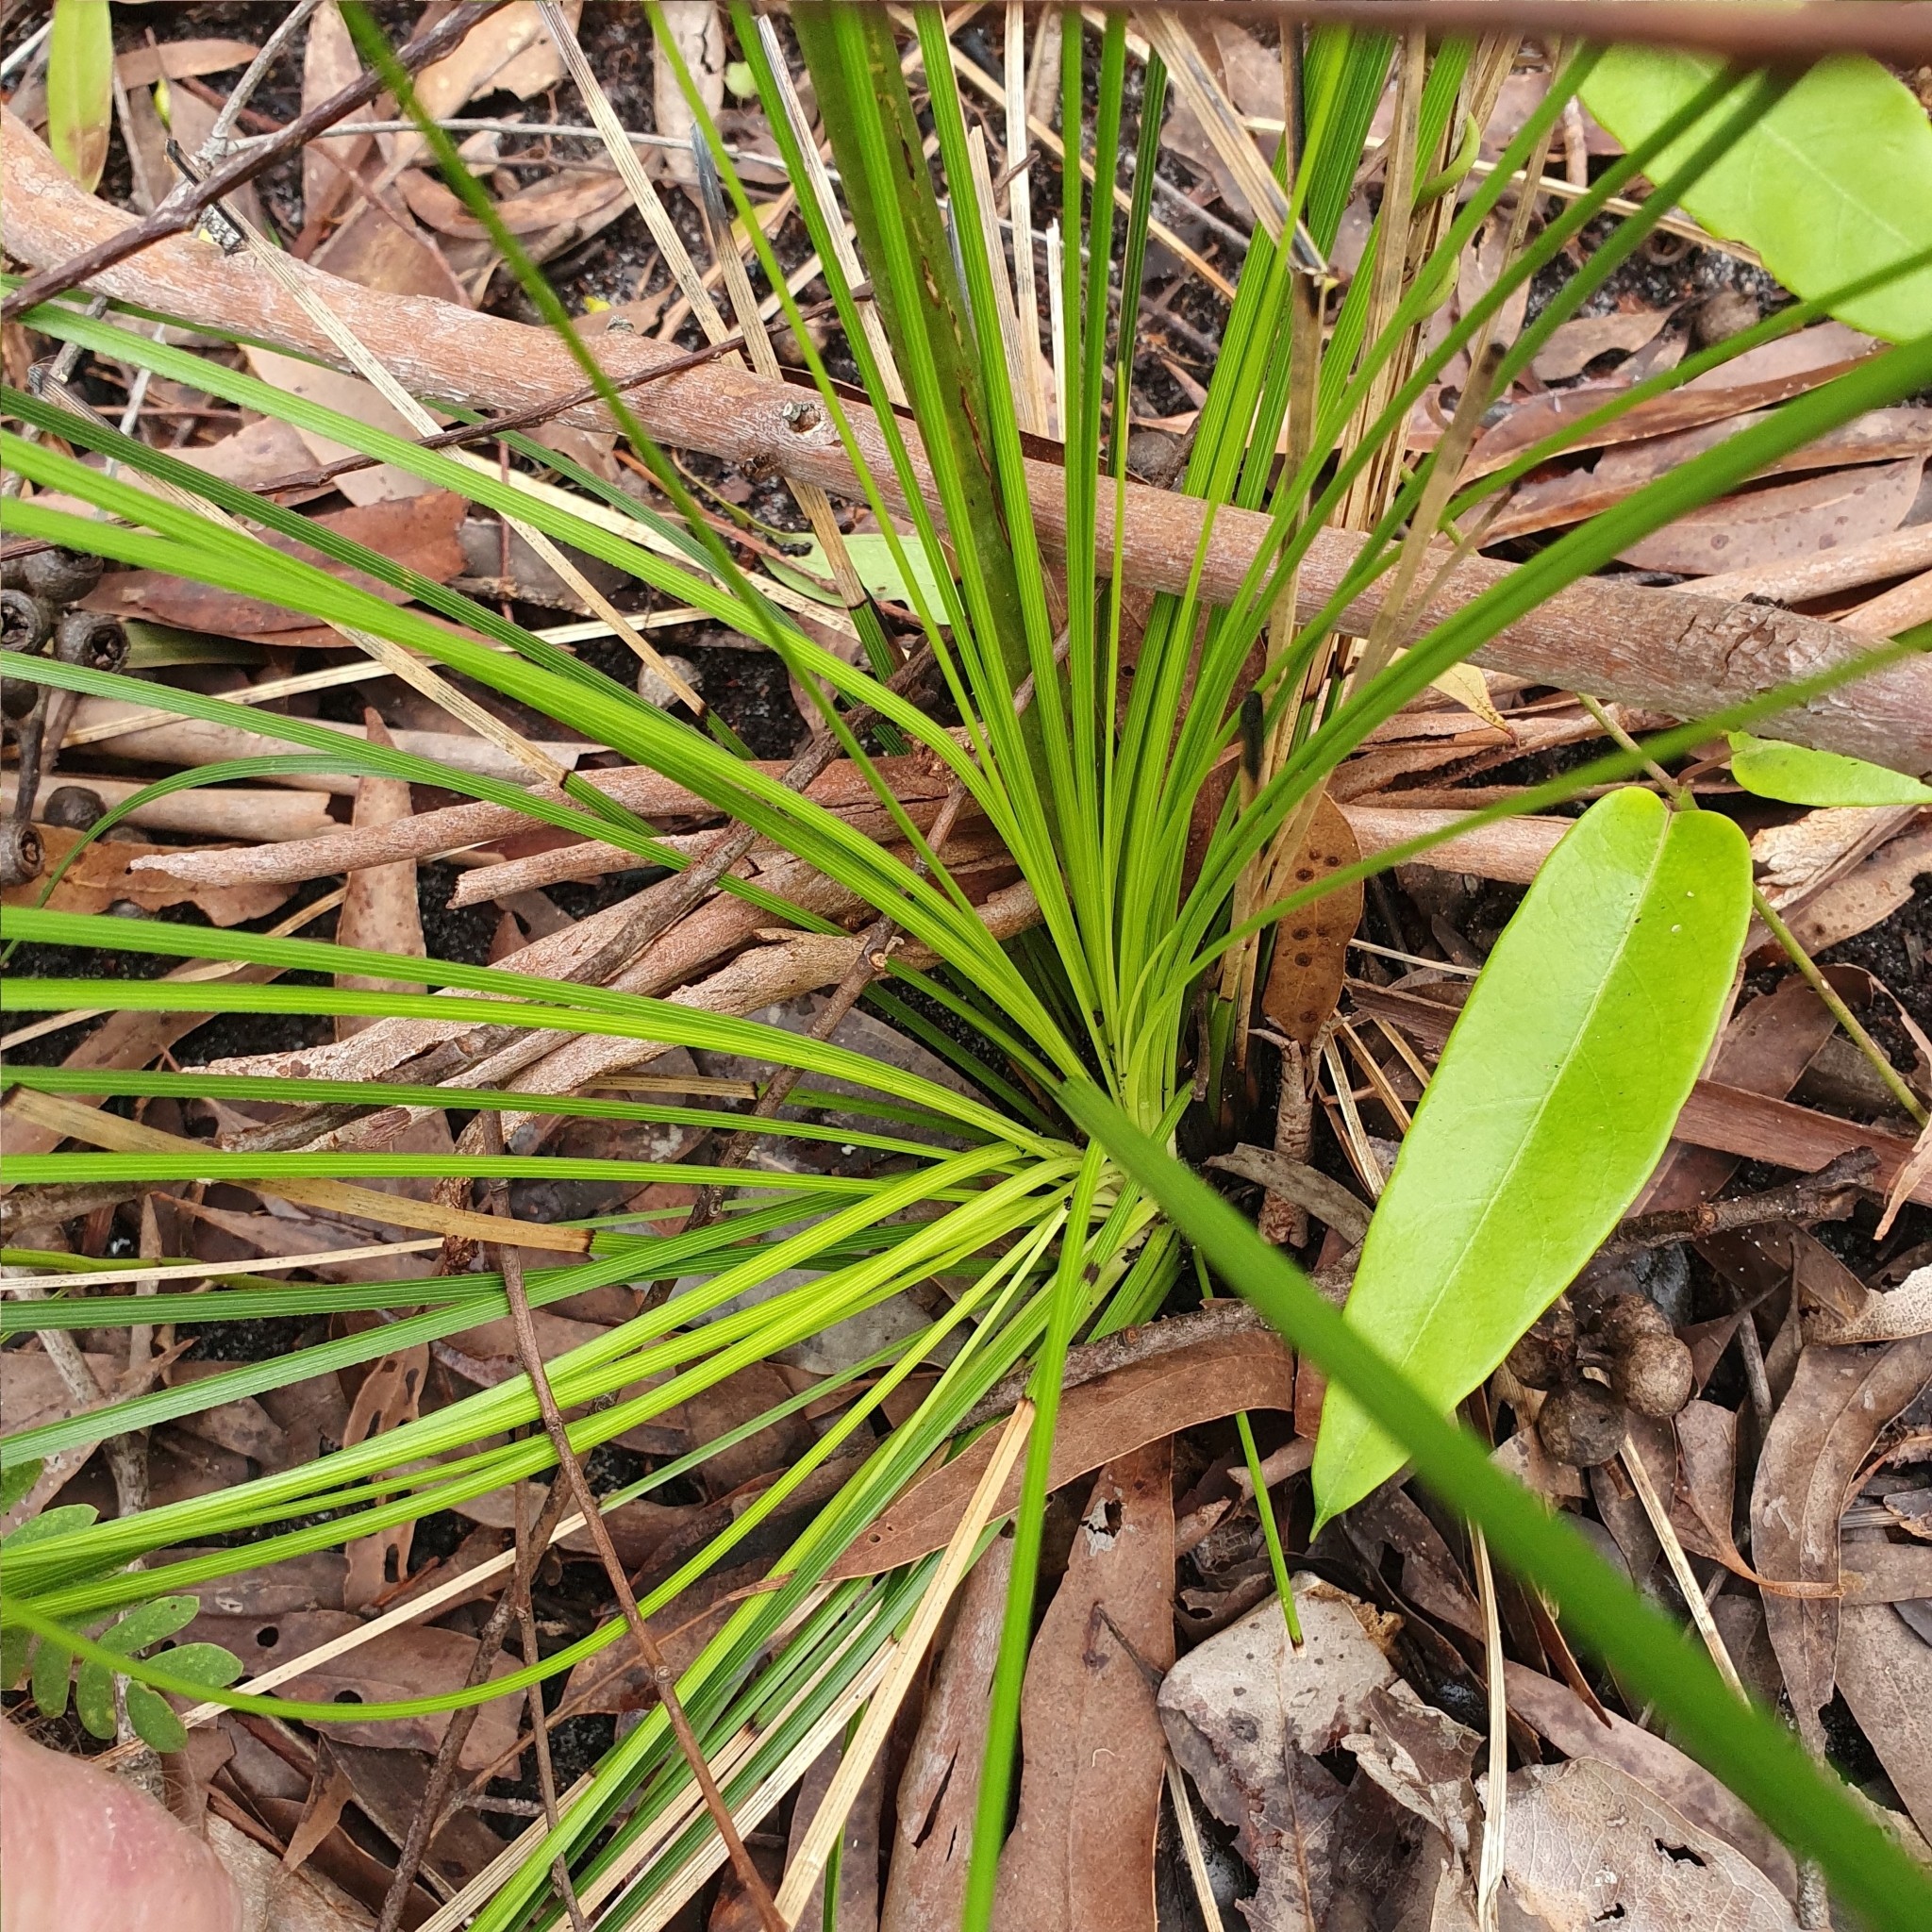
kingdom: Plantae
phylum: Tracheophyta
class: Liliopsida
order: Asparagales
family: Asphodelaceae
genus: Xanthorrhoea
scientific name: Xanthorrhoea macronema
